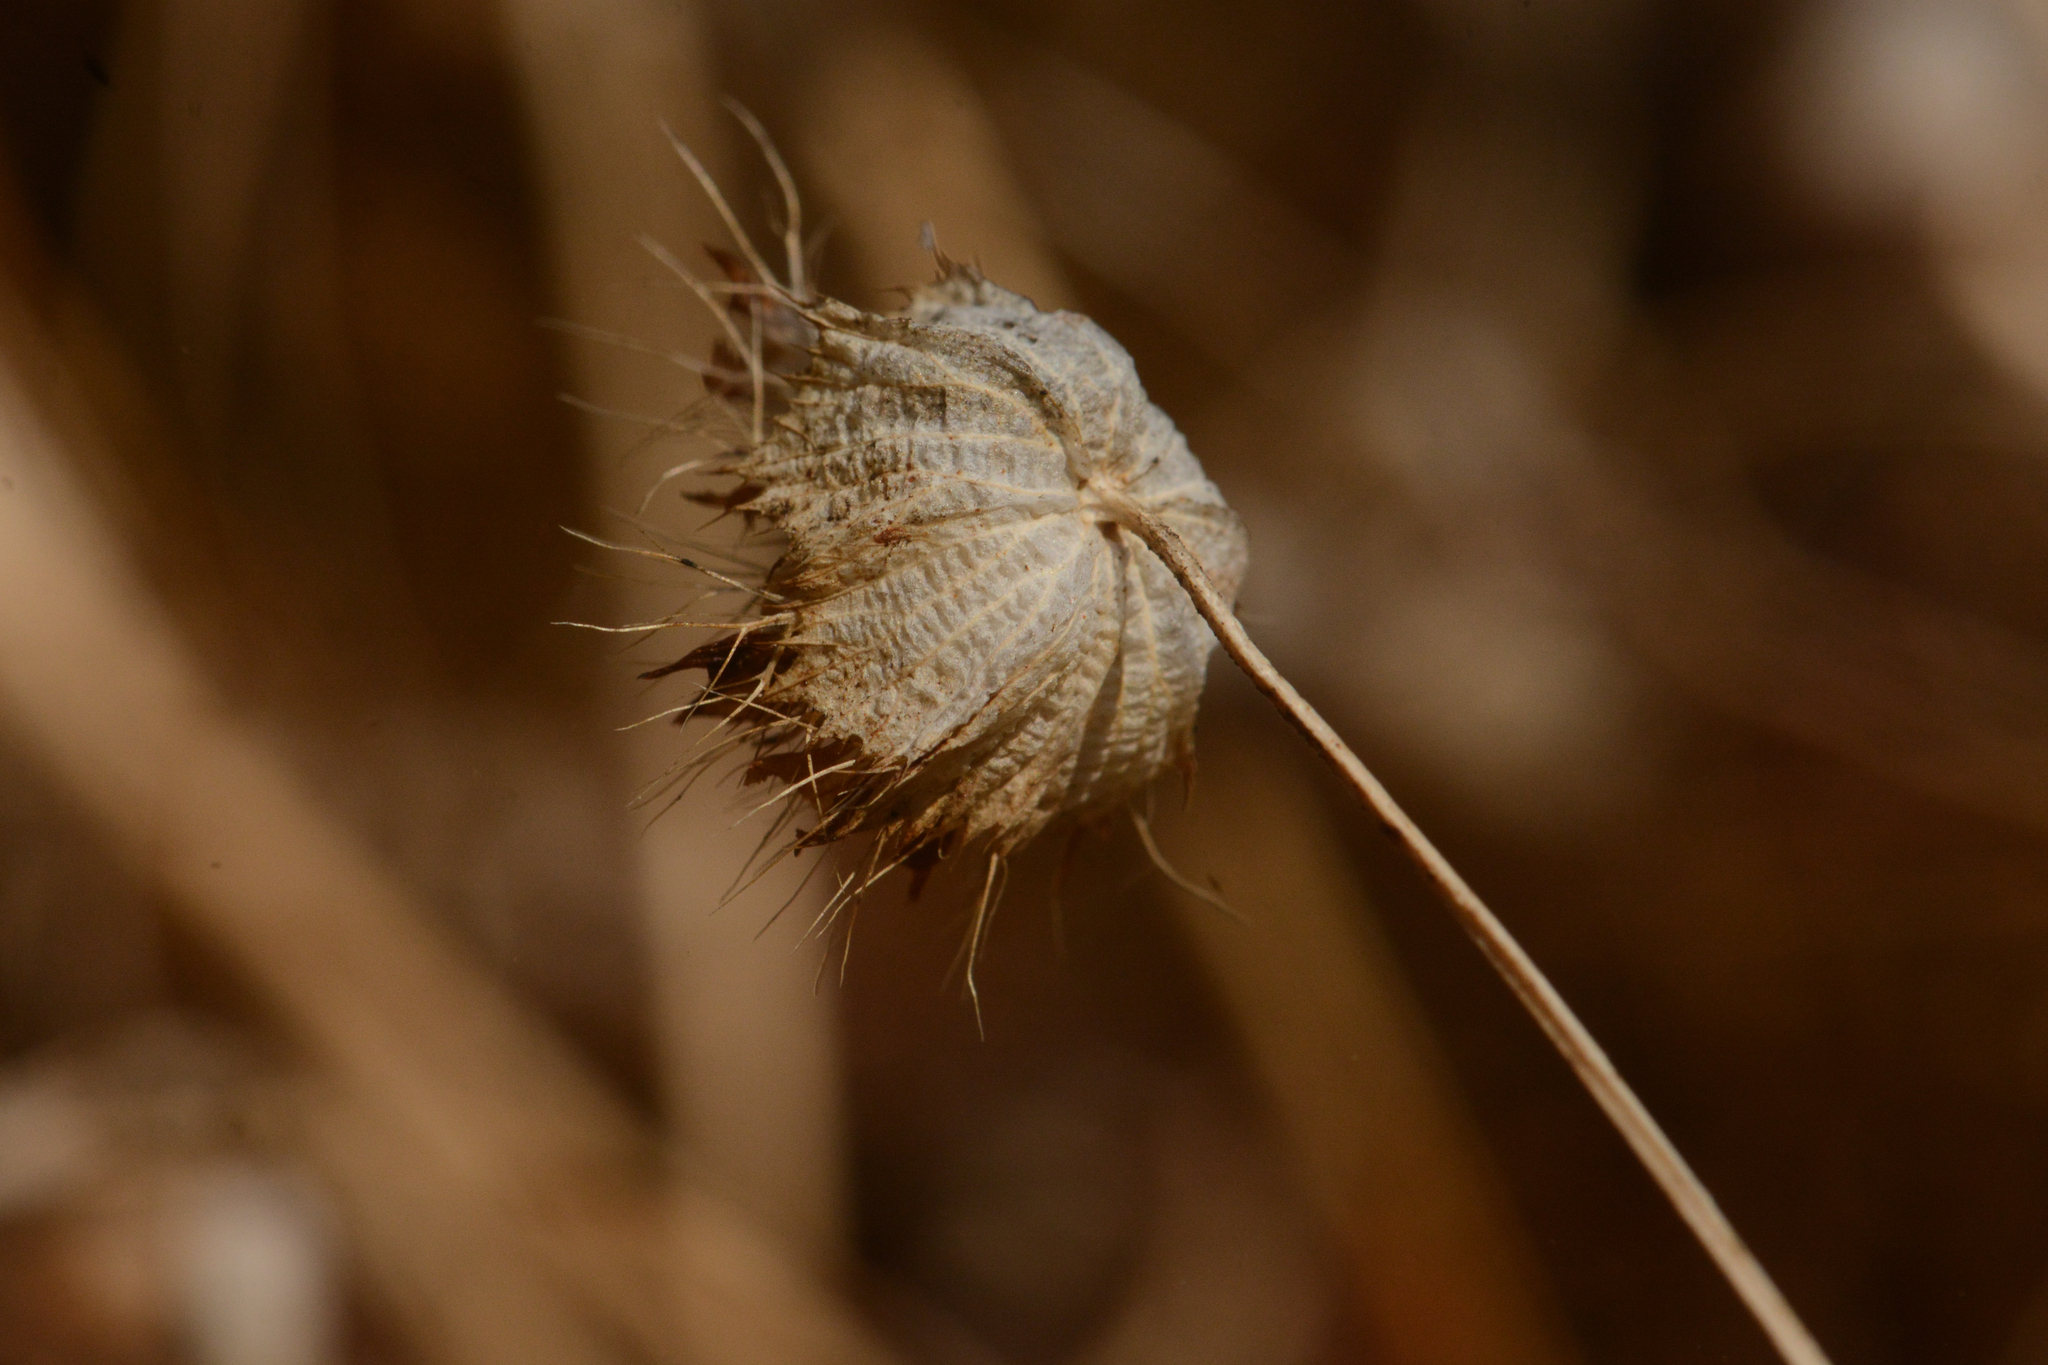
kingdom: Plantae
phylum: Tracheophyta
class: Magnoliopsida
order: Fabales
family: Fabaceae
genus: Trifolium
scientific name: Trifolium cyathiferum
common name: Bowl clover
